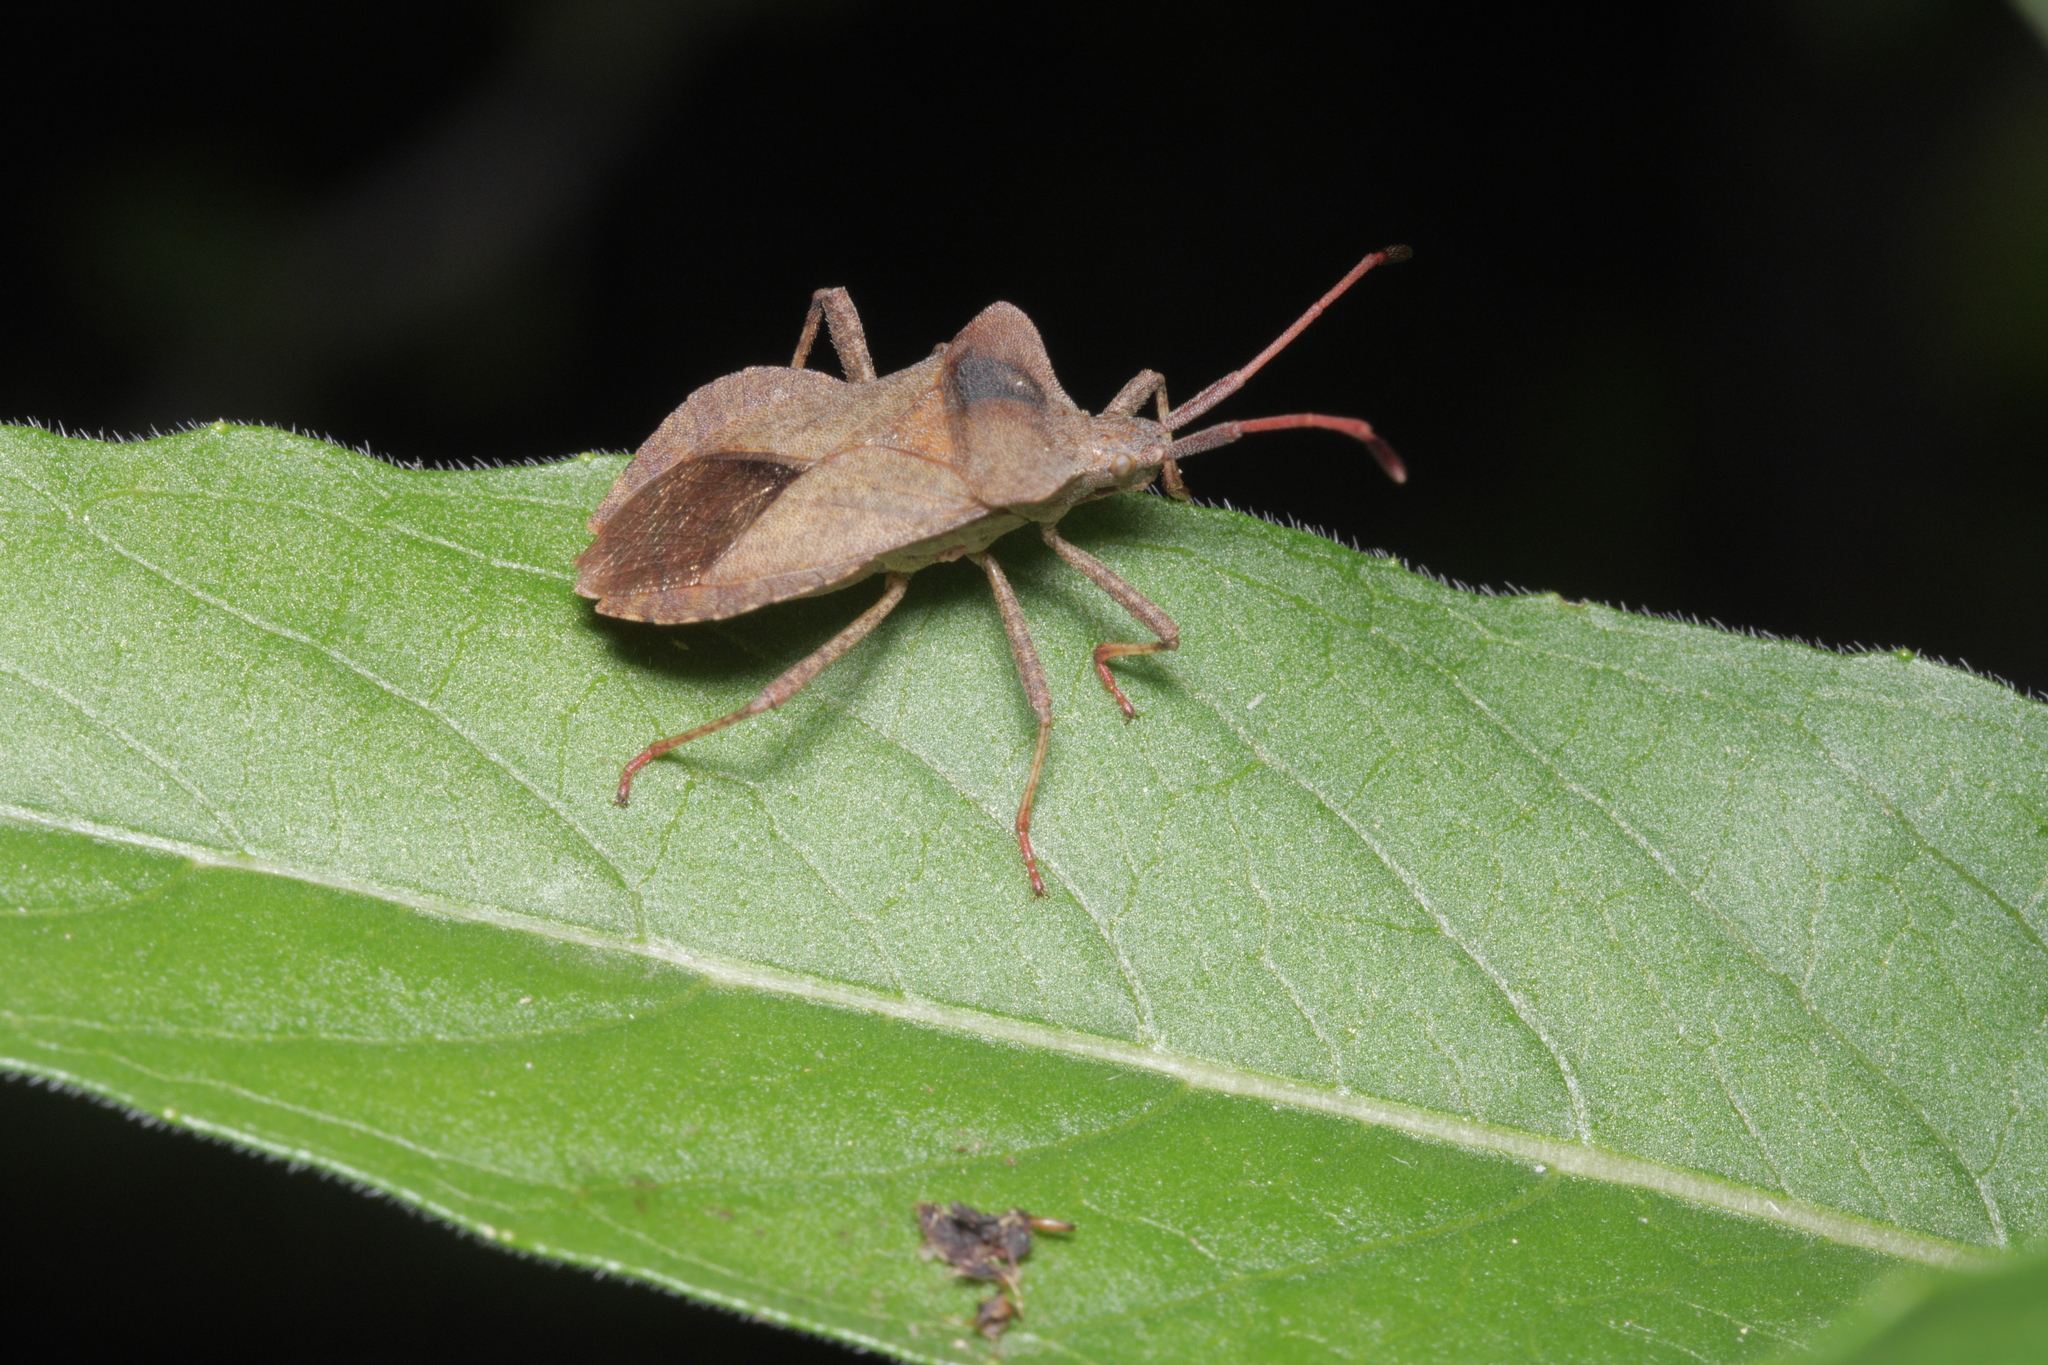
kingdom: Animalia
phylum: Arthropoda
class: Insecta
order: Hemiptera
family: Coreidae
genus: Coreus
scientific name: Coreus marginatus
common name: Dock bug
